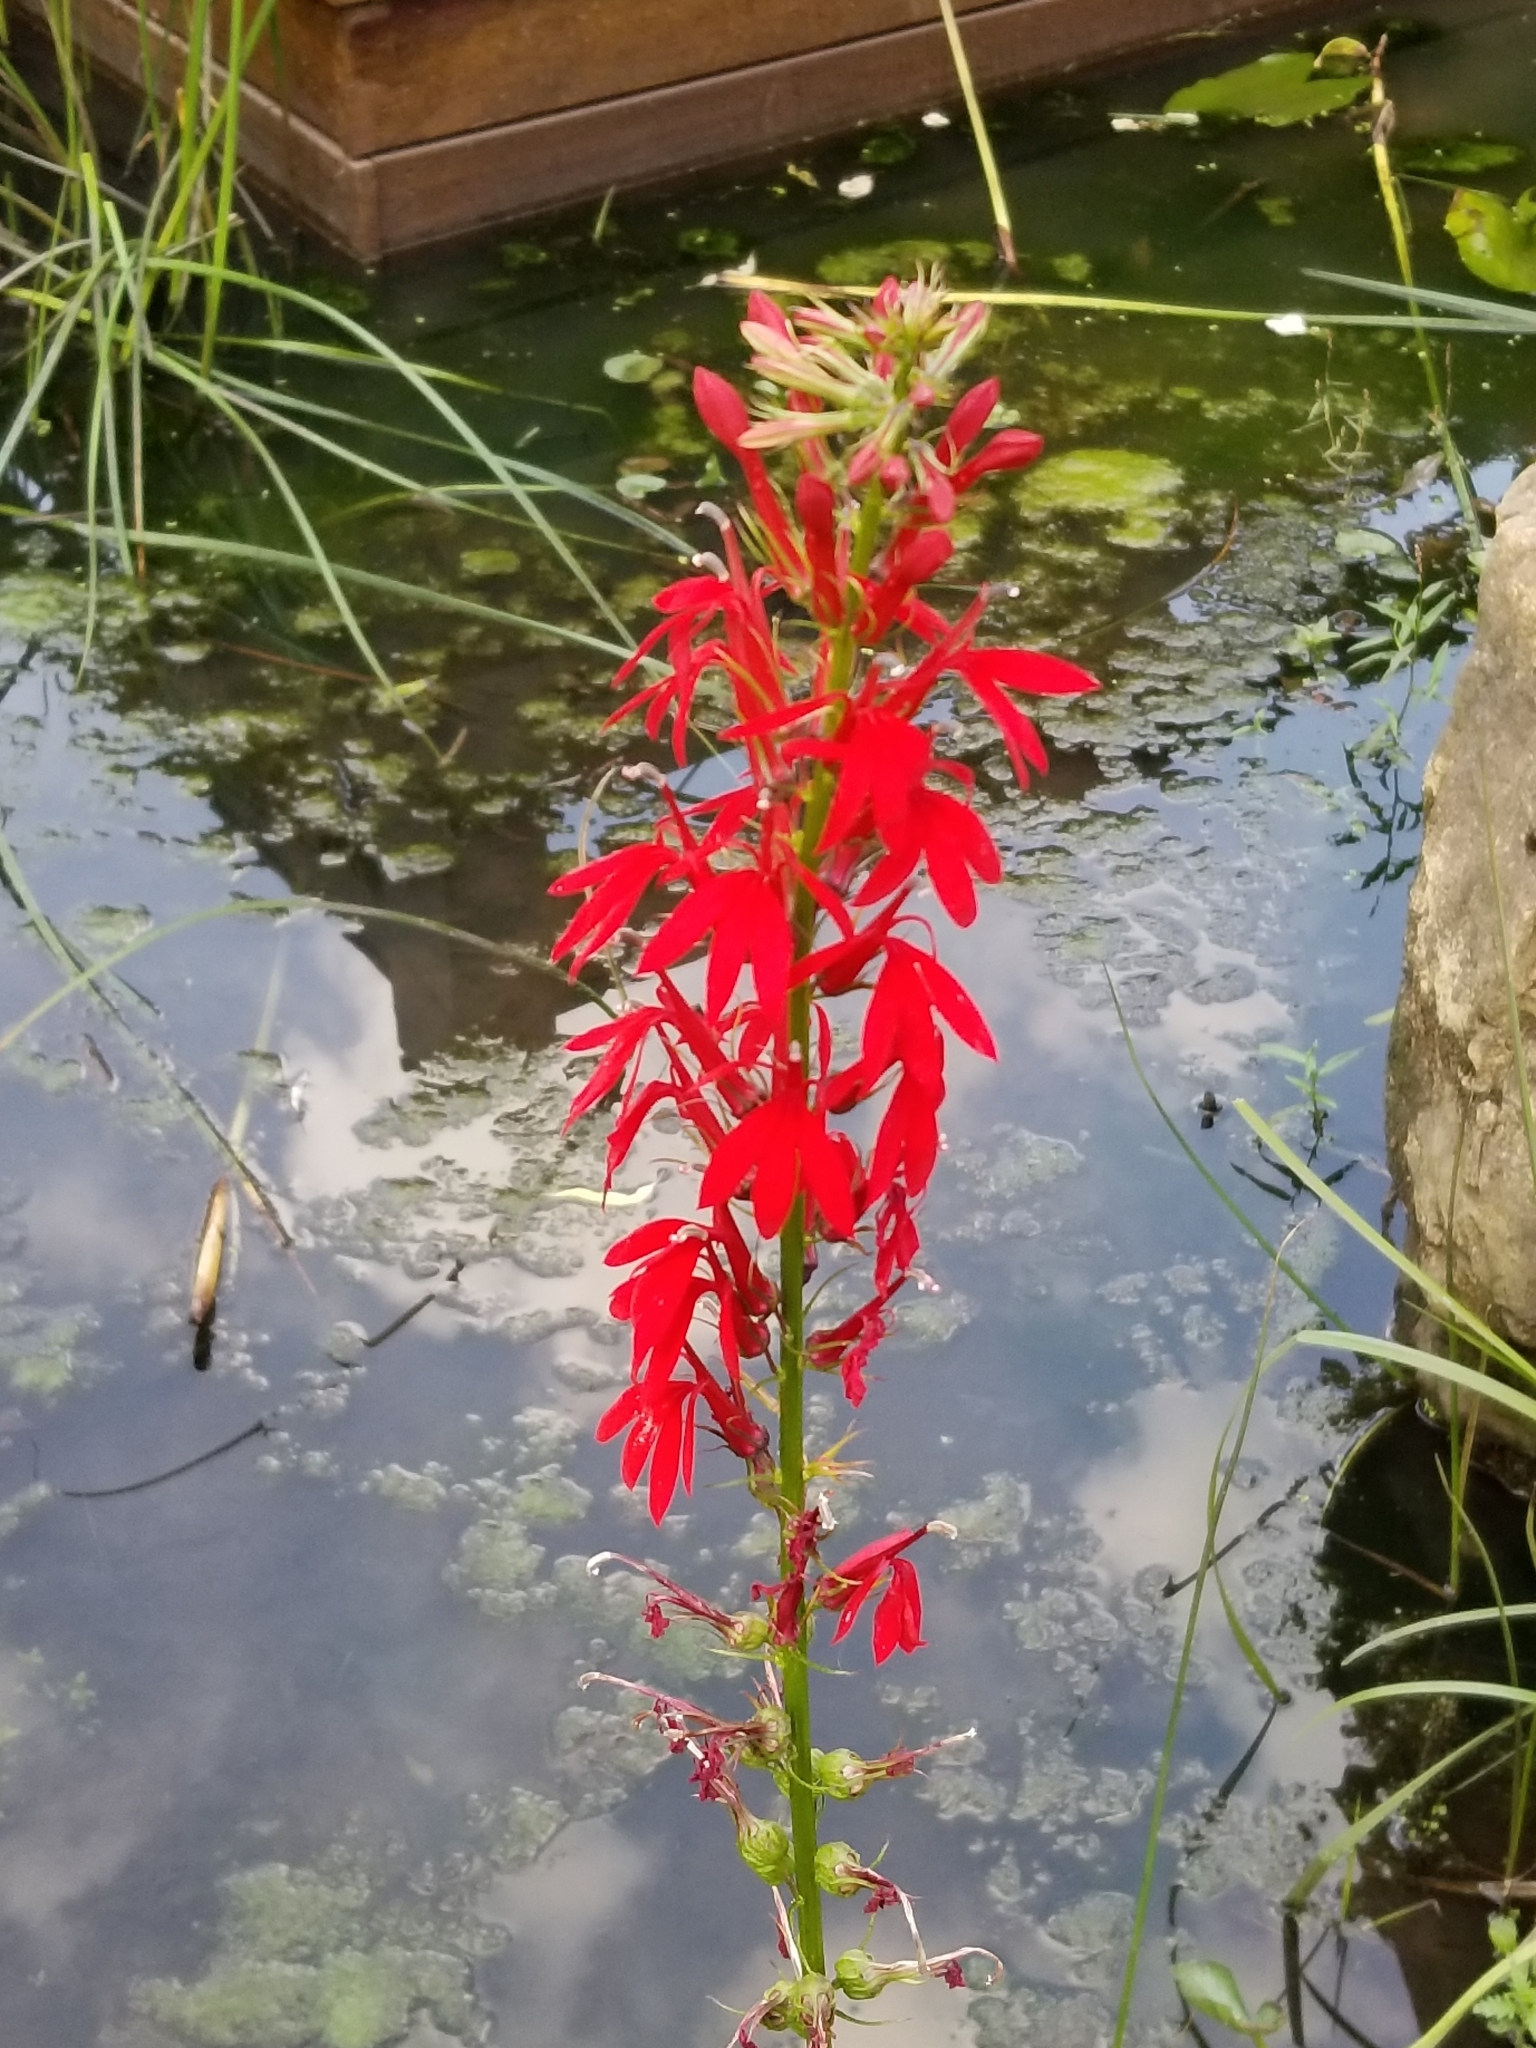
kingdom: Plantae
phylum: Tracheophyta
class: Magnoliopsida
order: Asterales
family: Campanulaceae
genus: Lobelia
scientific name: Lobelia cardinalis
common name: Cardinal flower
